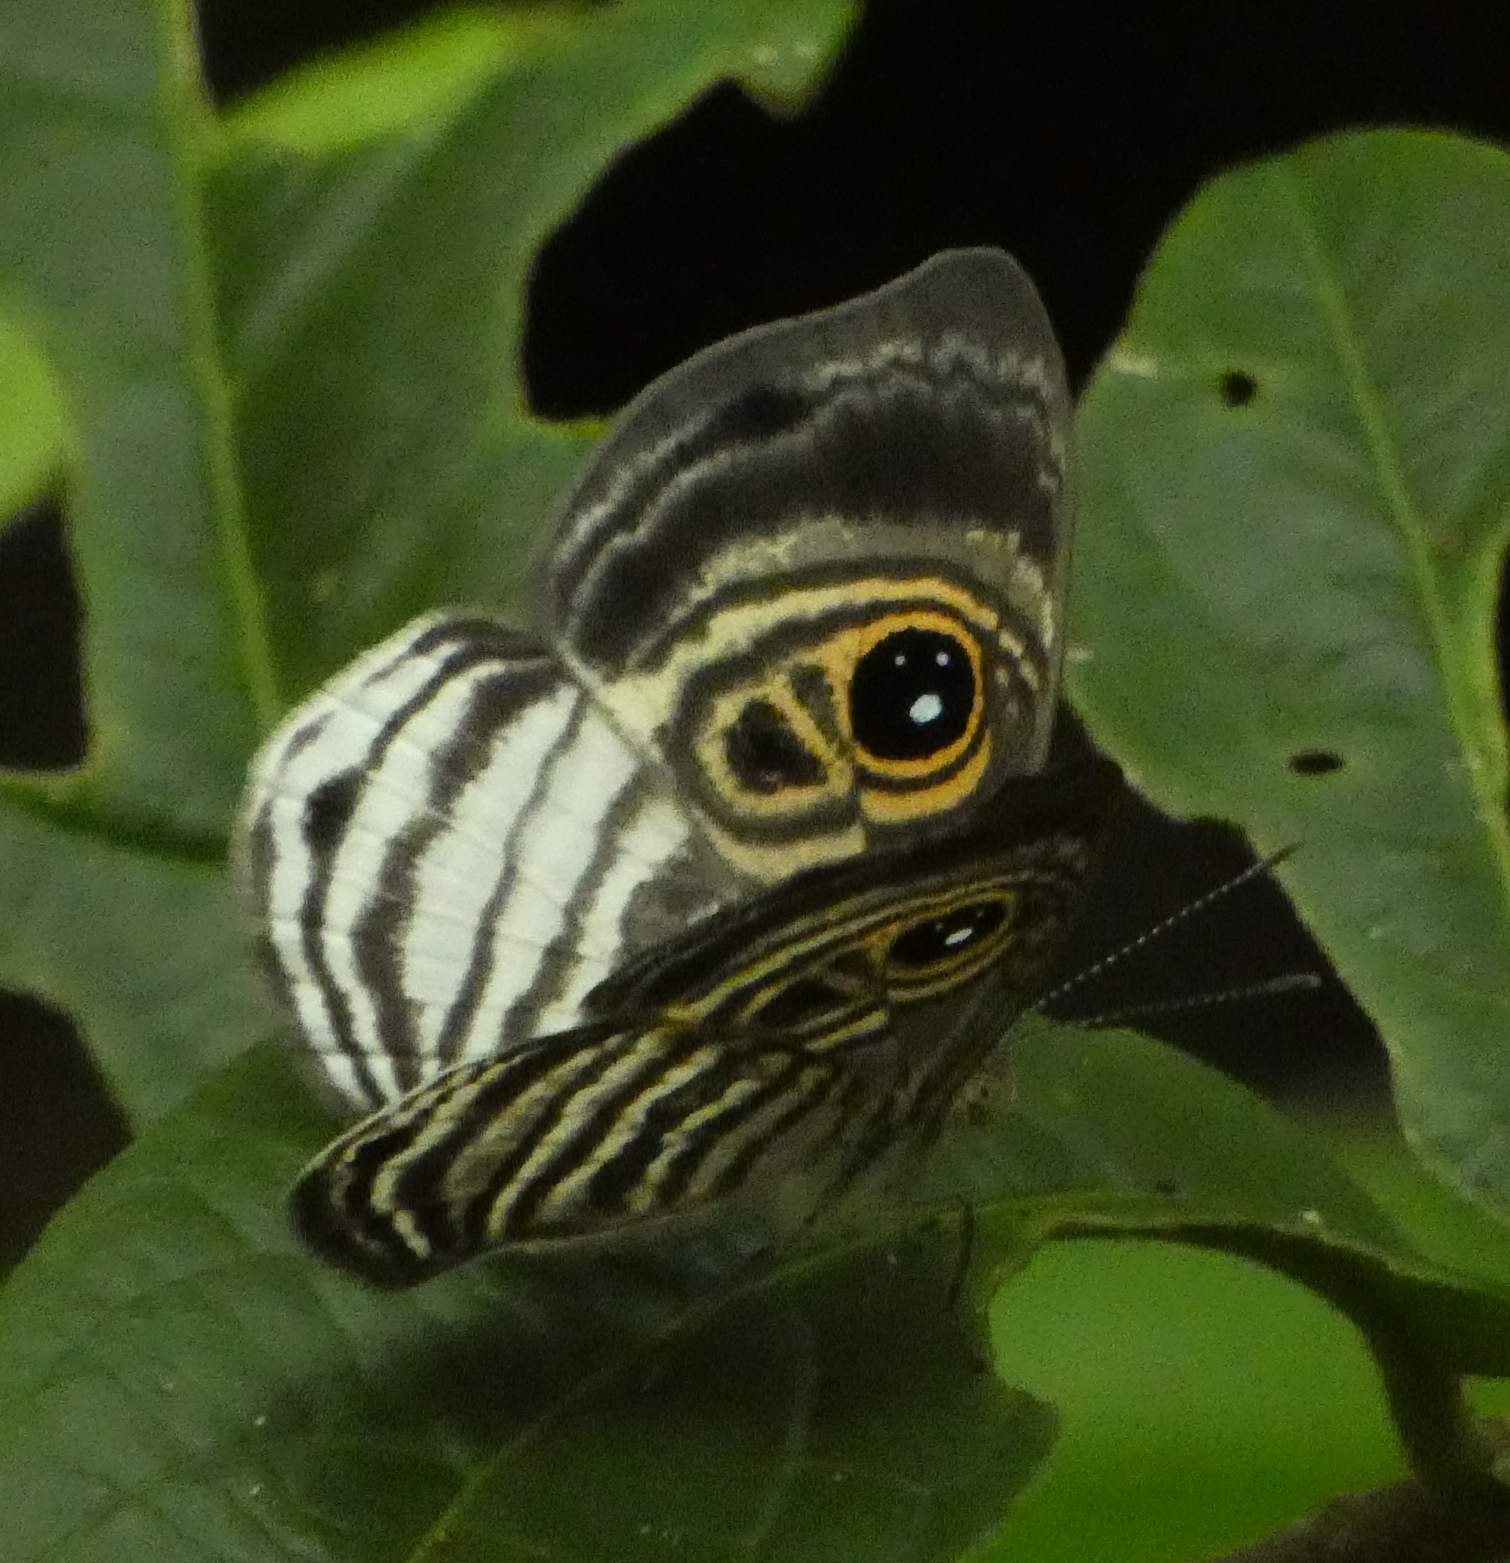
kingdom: Animalia
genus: Mesosemia
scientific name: Mesosemia minos
